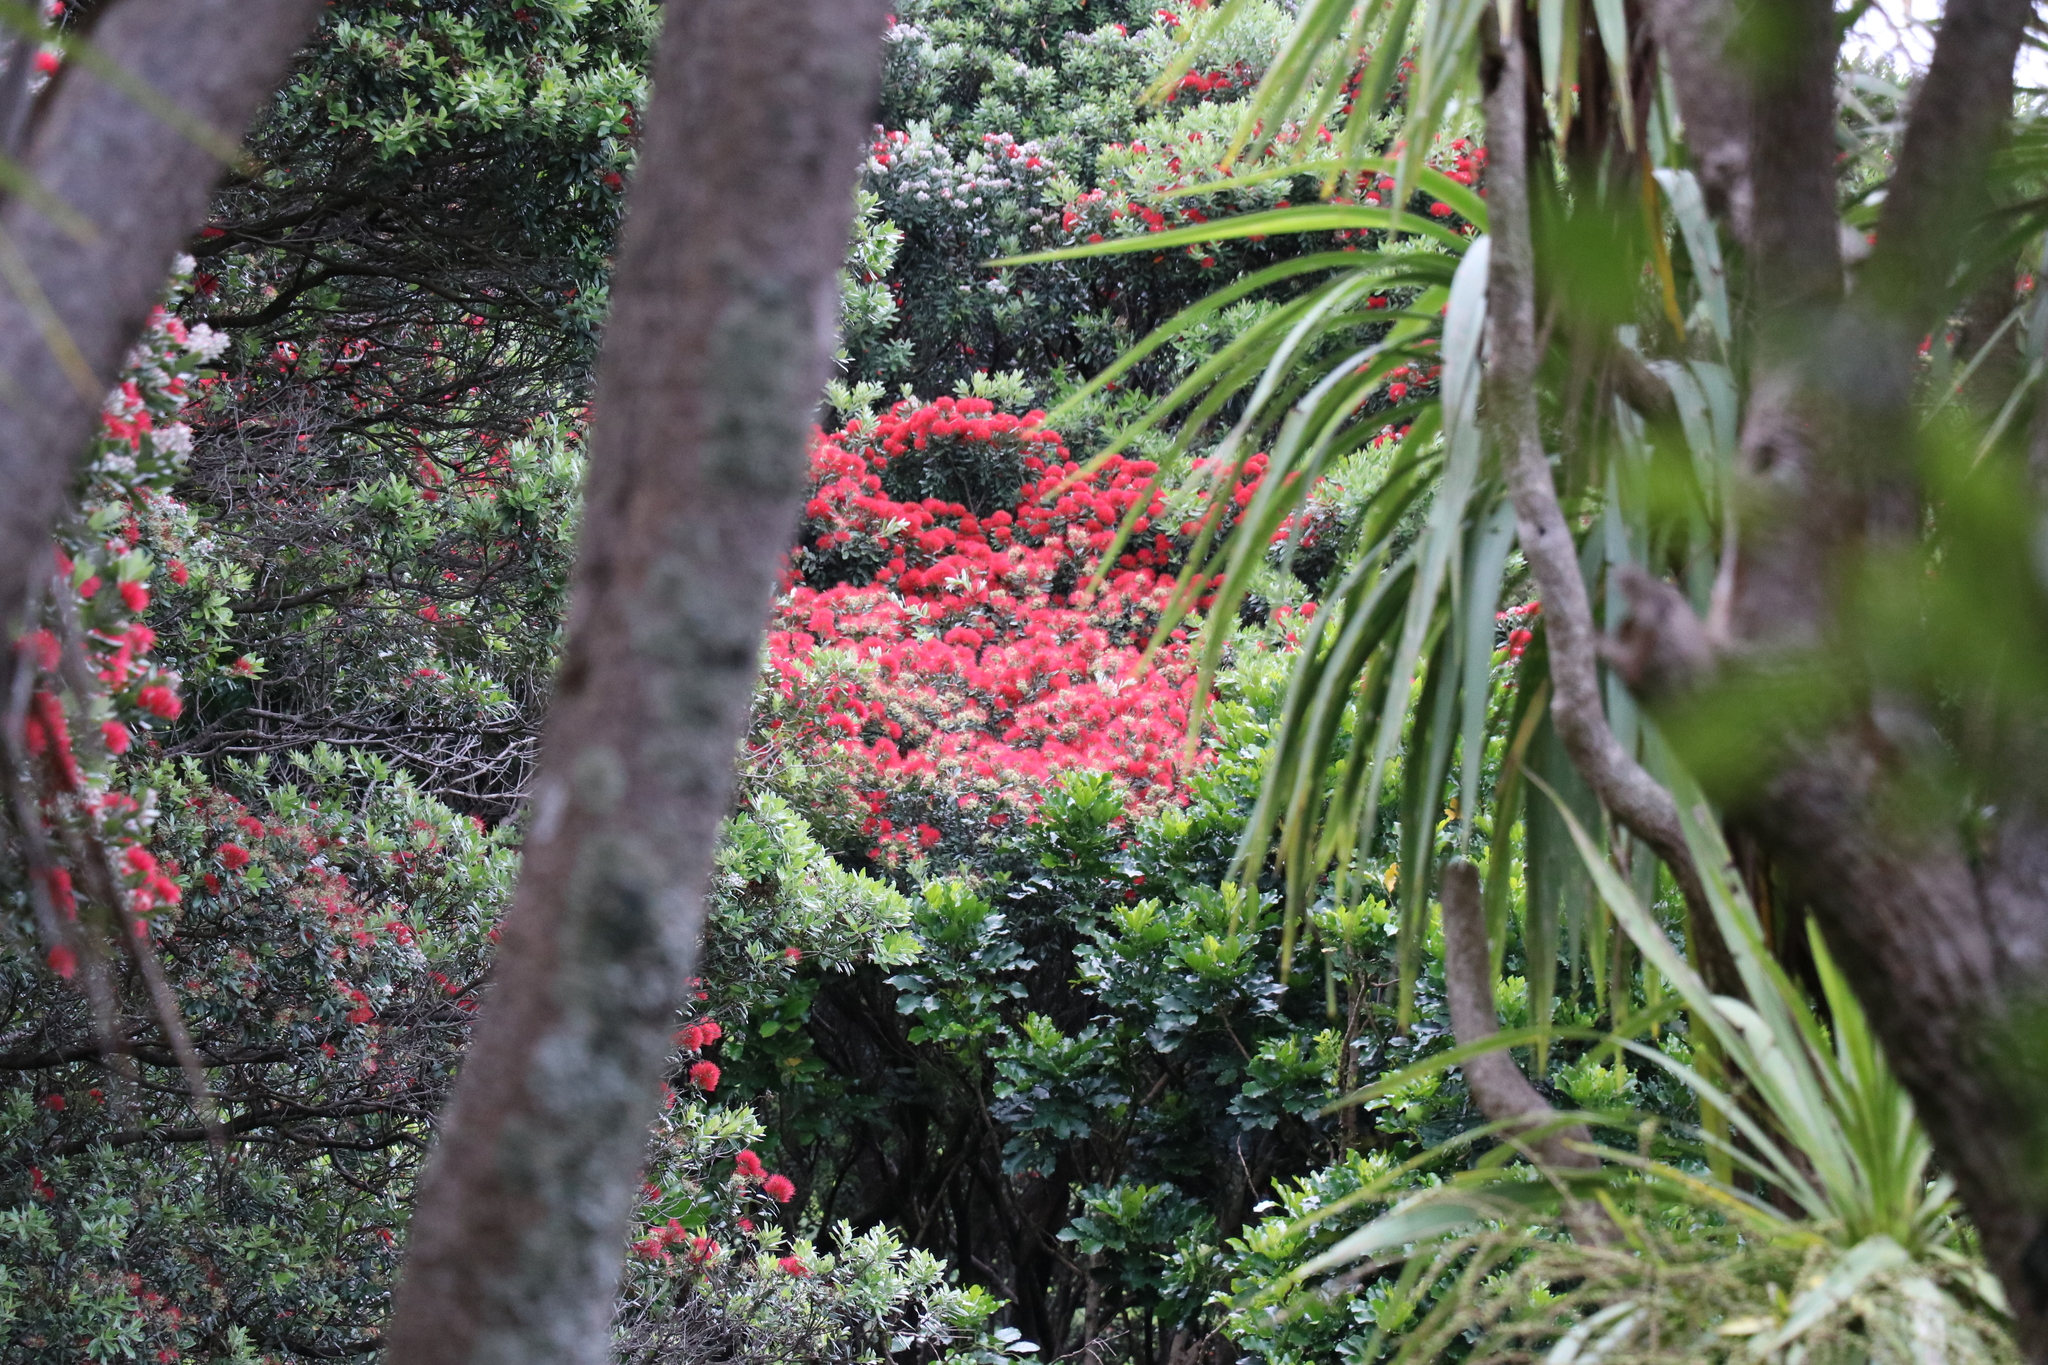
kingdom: Plantae
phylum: Tracheophyta
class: Magnoliopsida
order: Myrtales
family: Myrtaceae
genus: Metrosideros
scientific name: Metrosideros excelsa
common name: New zealand christmastree
